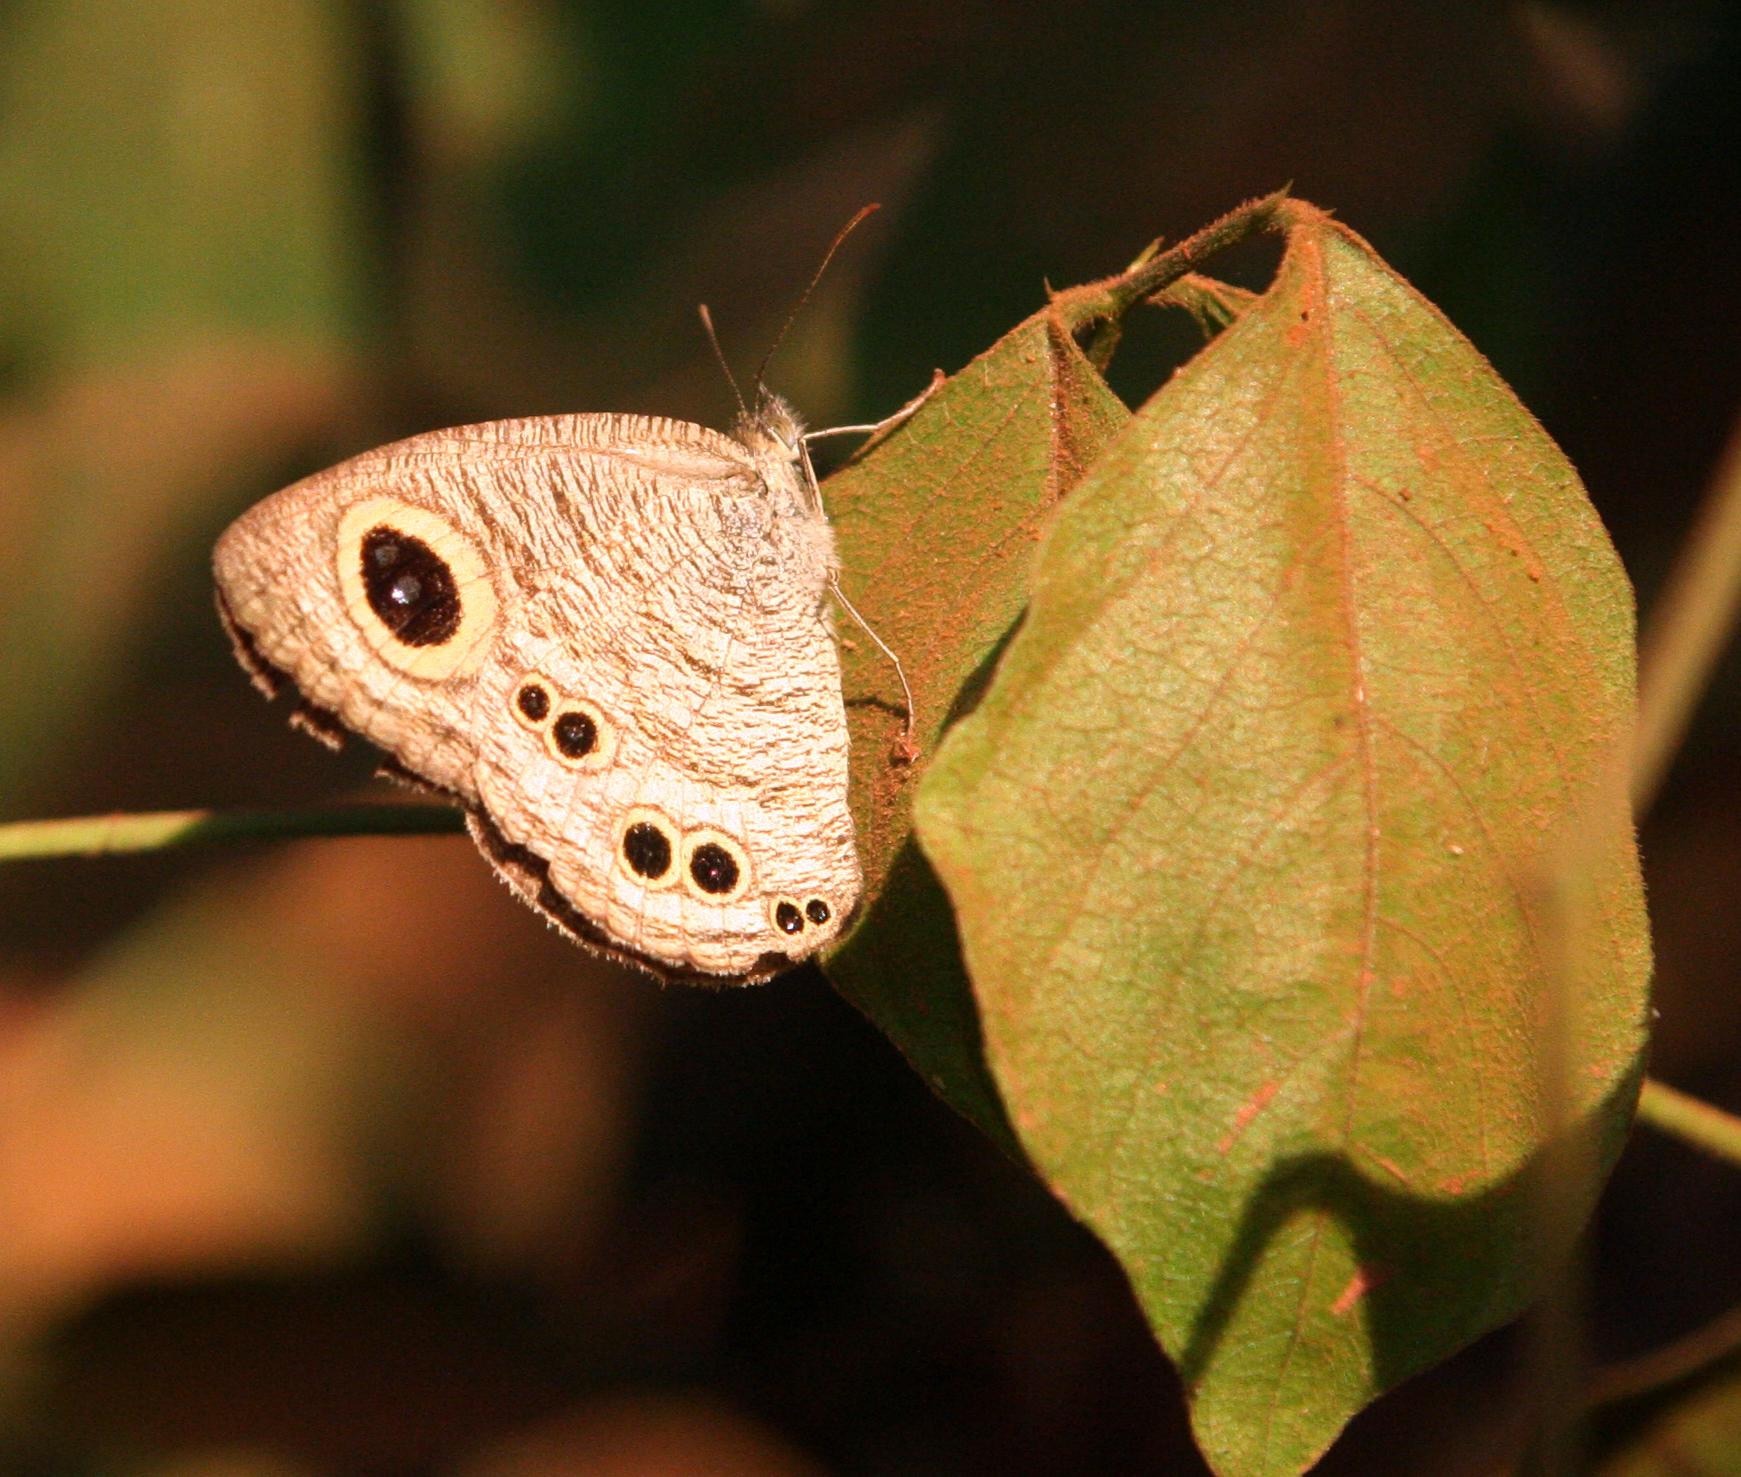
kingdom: Animalia
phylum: Arthropoda
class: Insecta
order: Lepidoptera
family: Nymphalidae
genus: Ypthima
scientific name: Ypthima baldus
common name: Common five-ring
